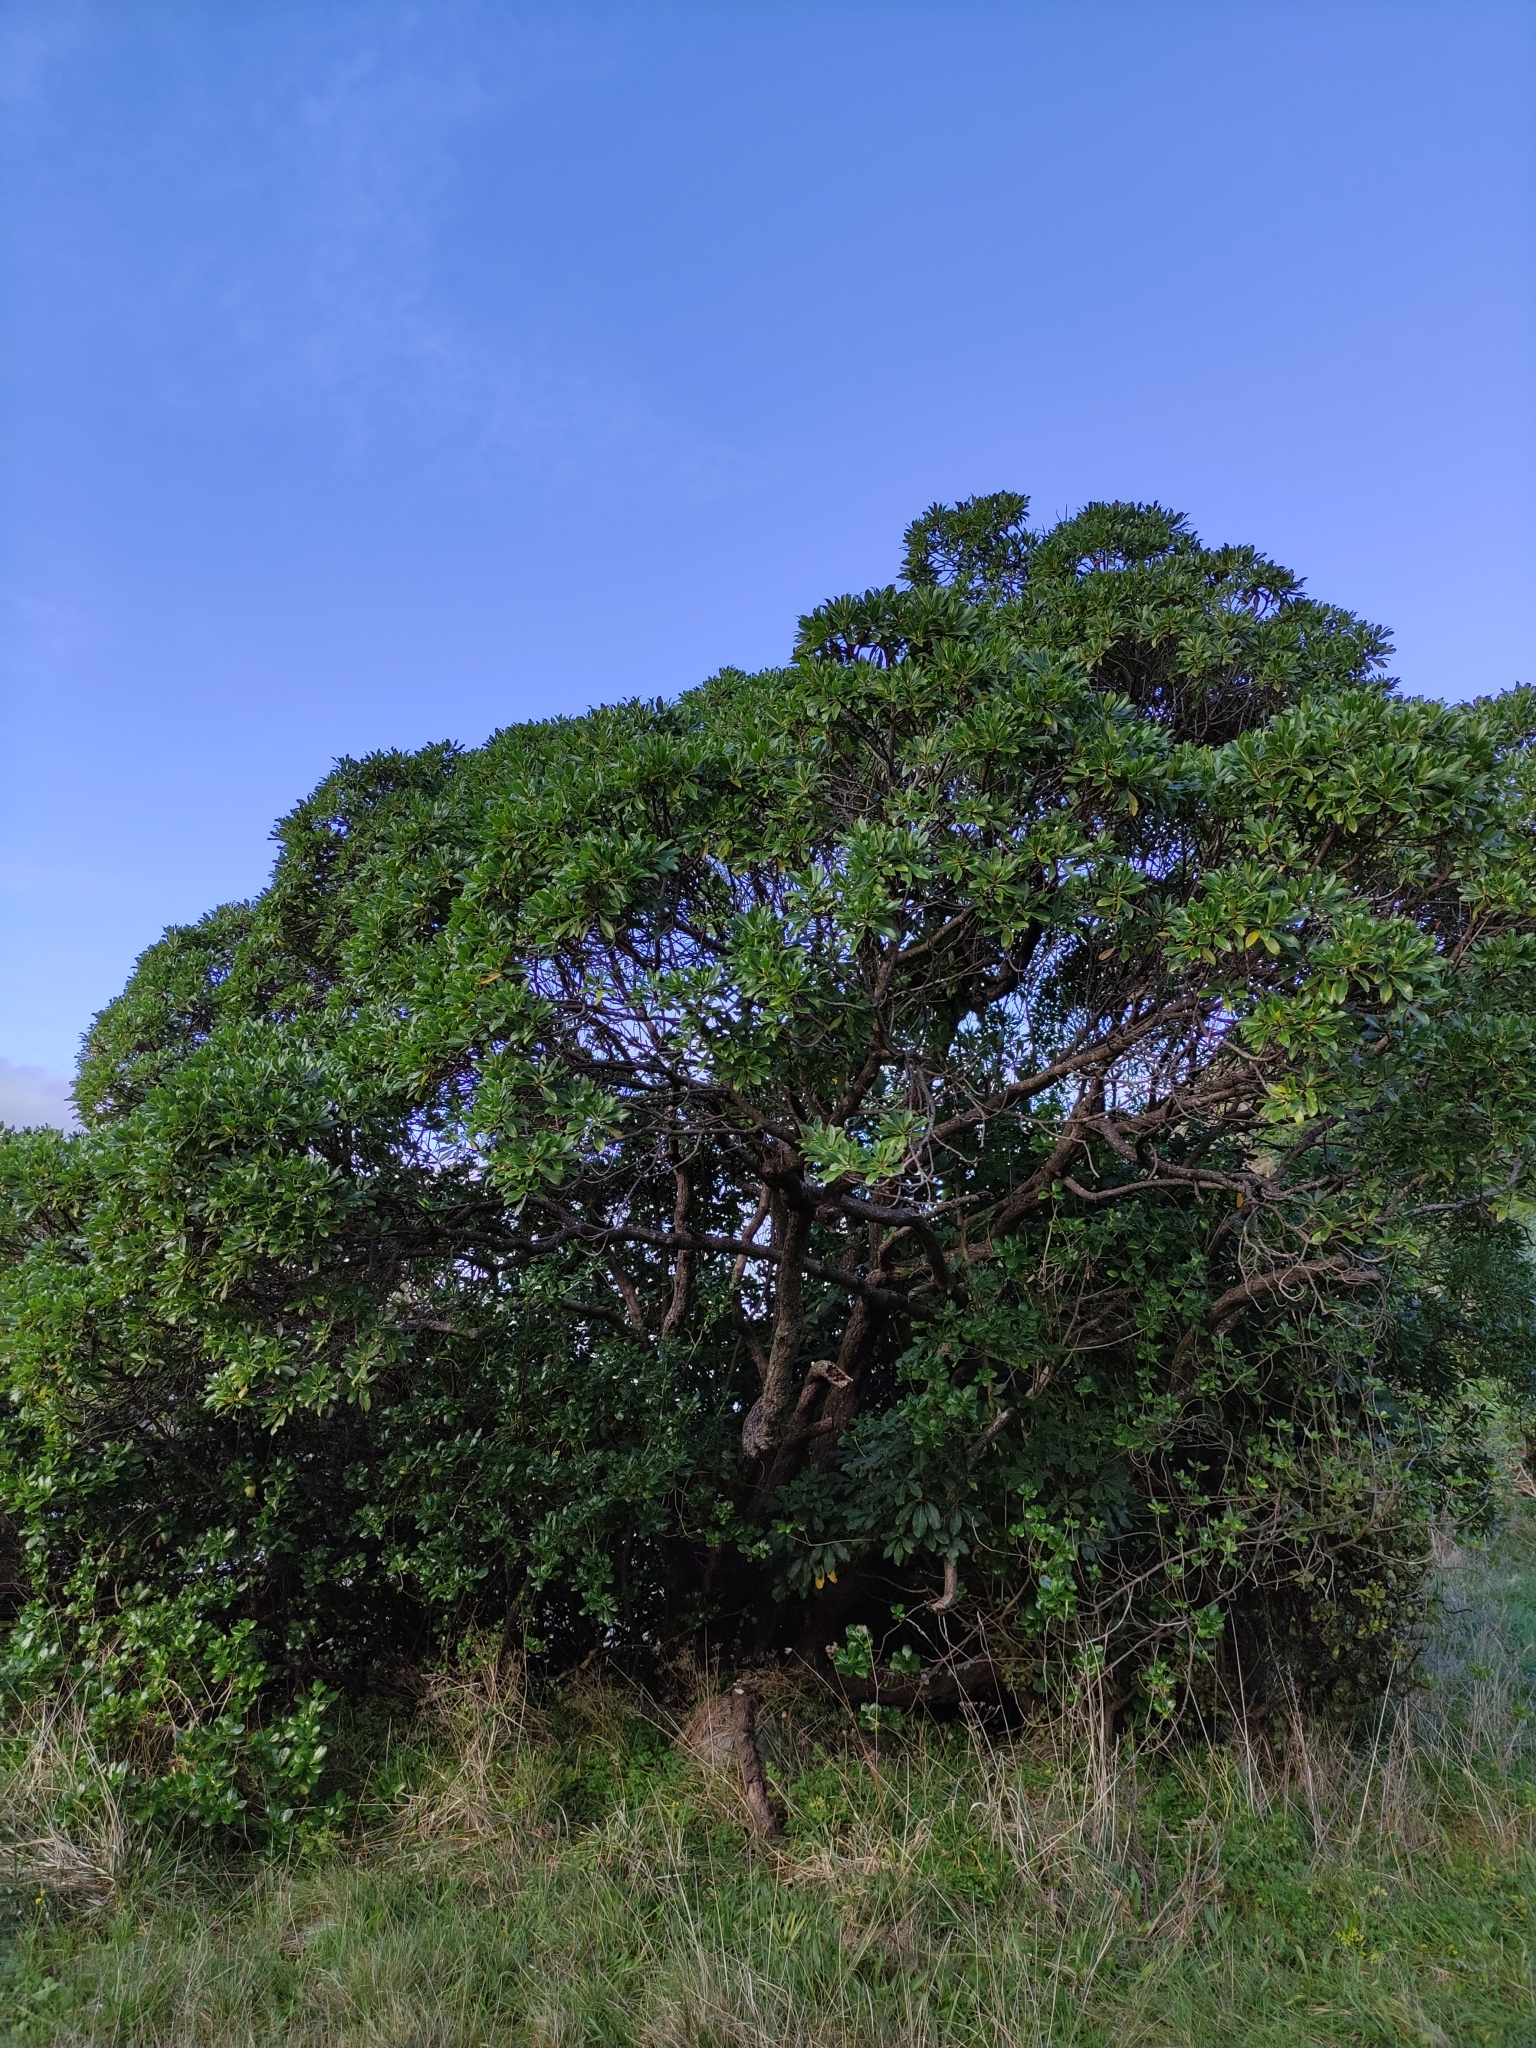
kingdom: Plantae
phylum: Tracheophyta
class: Magnoliopsida
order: Lamiales
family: Scrophulariaceae
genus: Myoporum
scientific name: Myoporum laetum
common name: Ngaio tree
